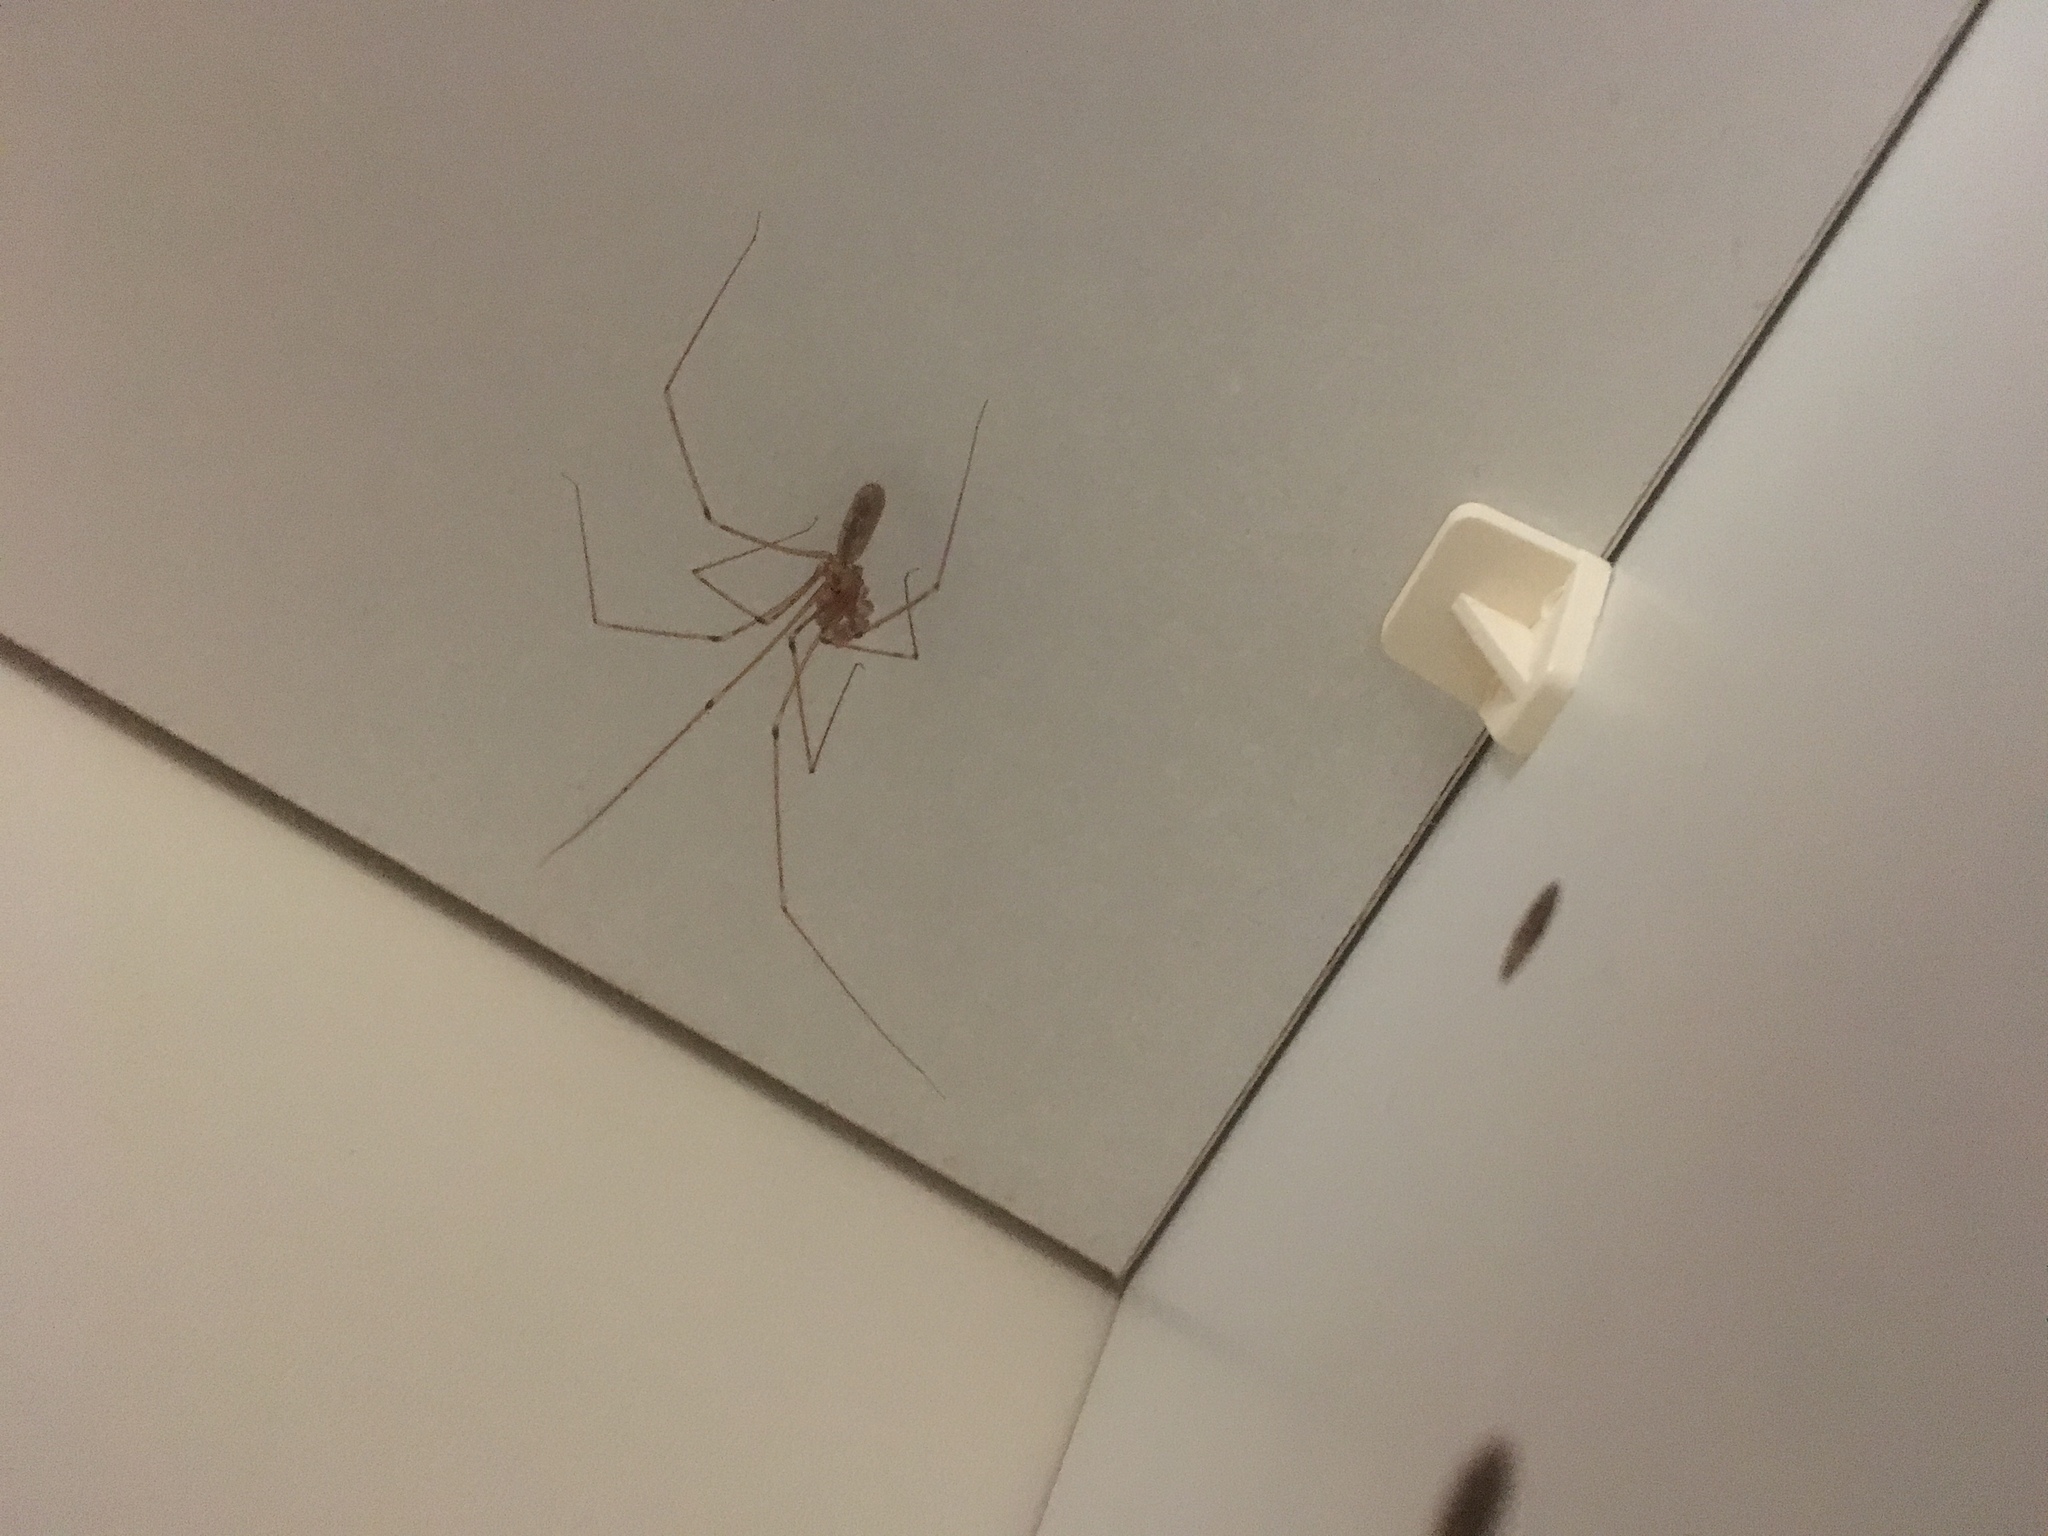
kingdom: Animalia
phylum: Arthropoda
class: Arachnida
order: Araneae
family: Pholcidae
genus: Pholcus
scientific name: Pholcus phalangioides
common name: Longbodied cellar spider
